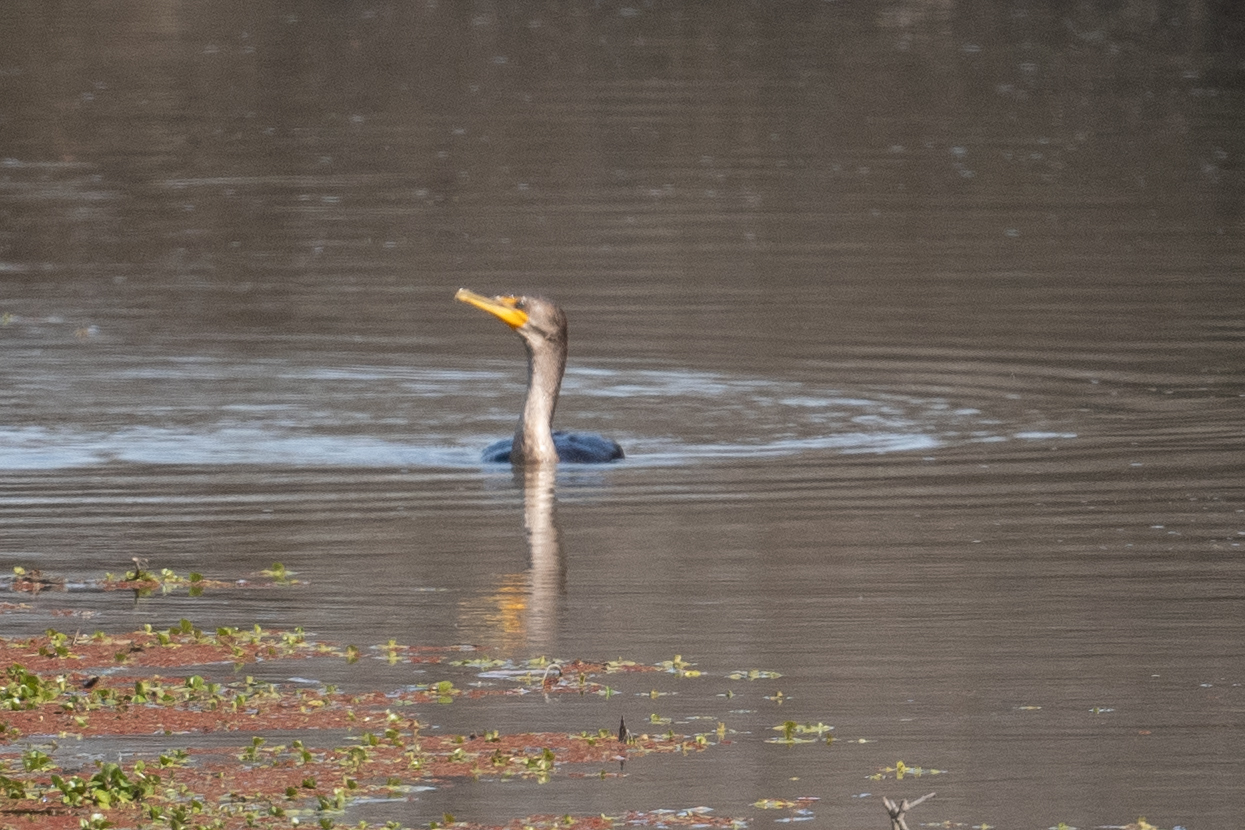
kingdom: Animalia
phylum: Chordata
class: Aves
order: Suliformes
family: Phalacrocoracidae
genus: Phalacrocorax
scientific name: Phalacrocorax auritus
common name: Double-crested cormorant
